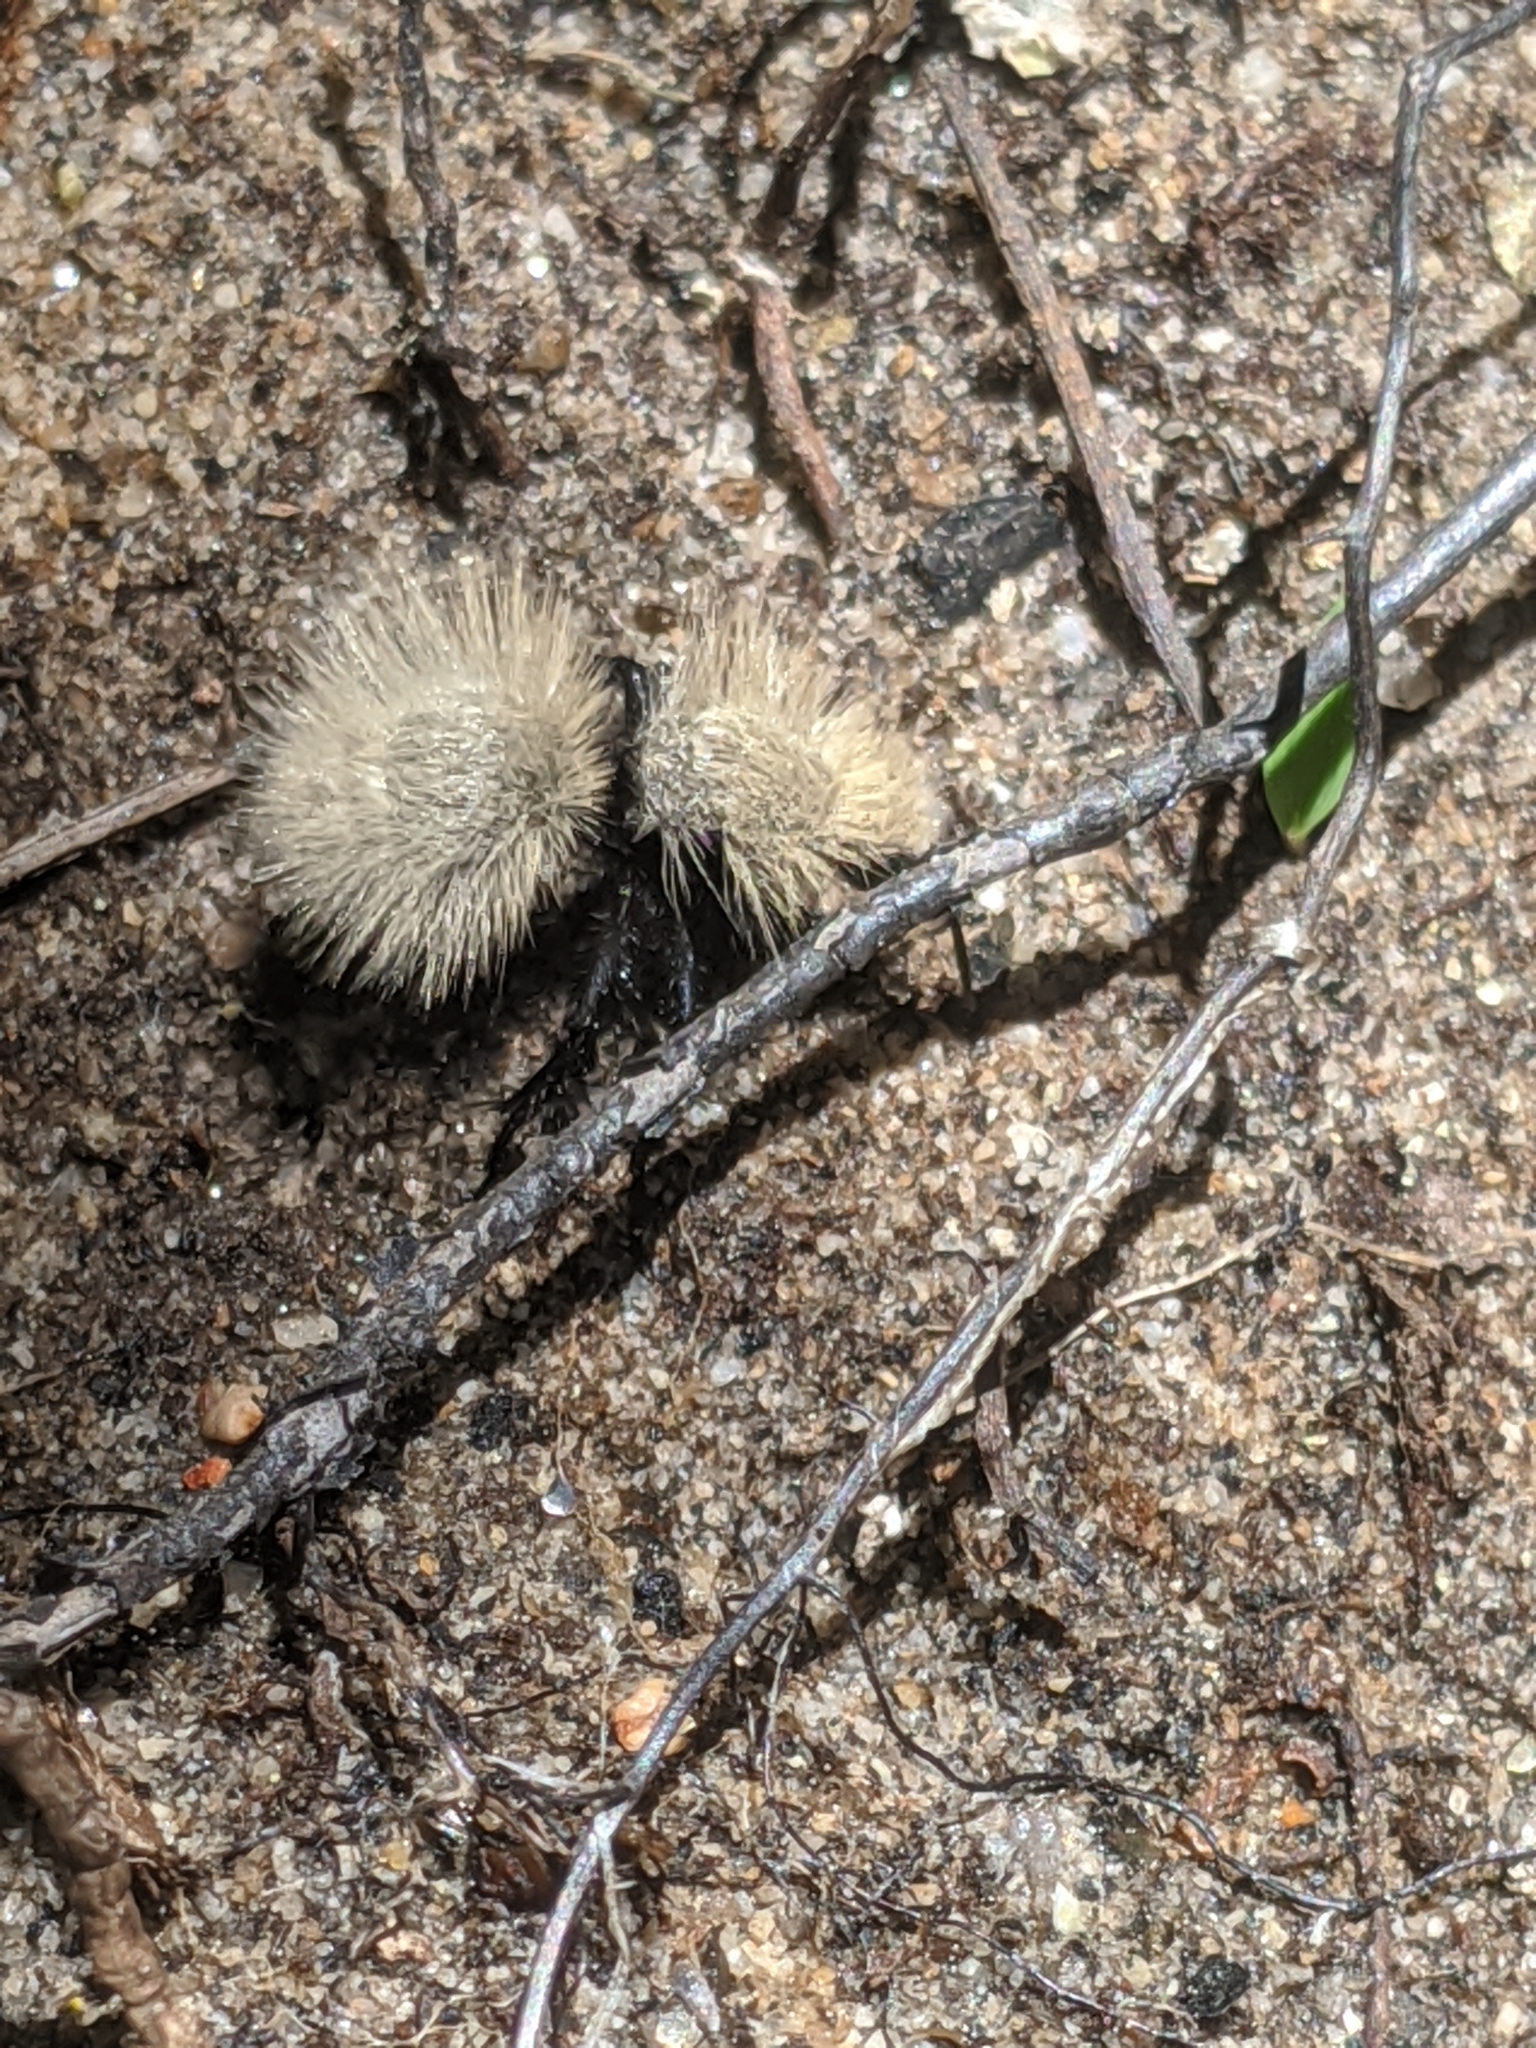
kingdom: Animalia
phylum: Arthropoda
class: Insecta
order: Hymenoptera
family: Mutillidae
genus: Dasymutilla
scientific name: Dasymutilla
